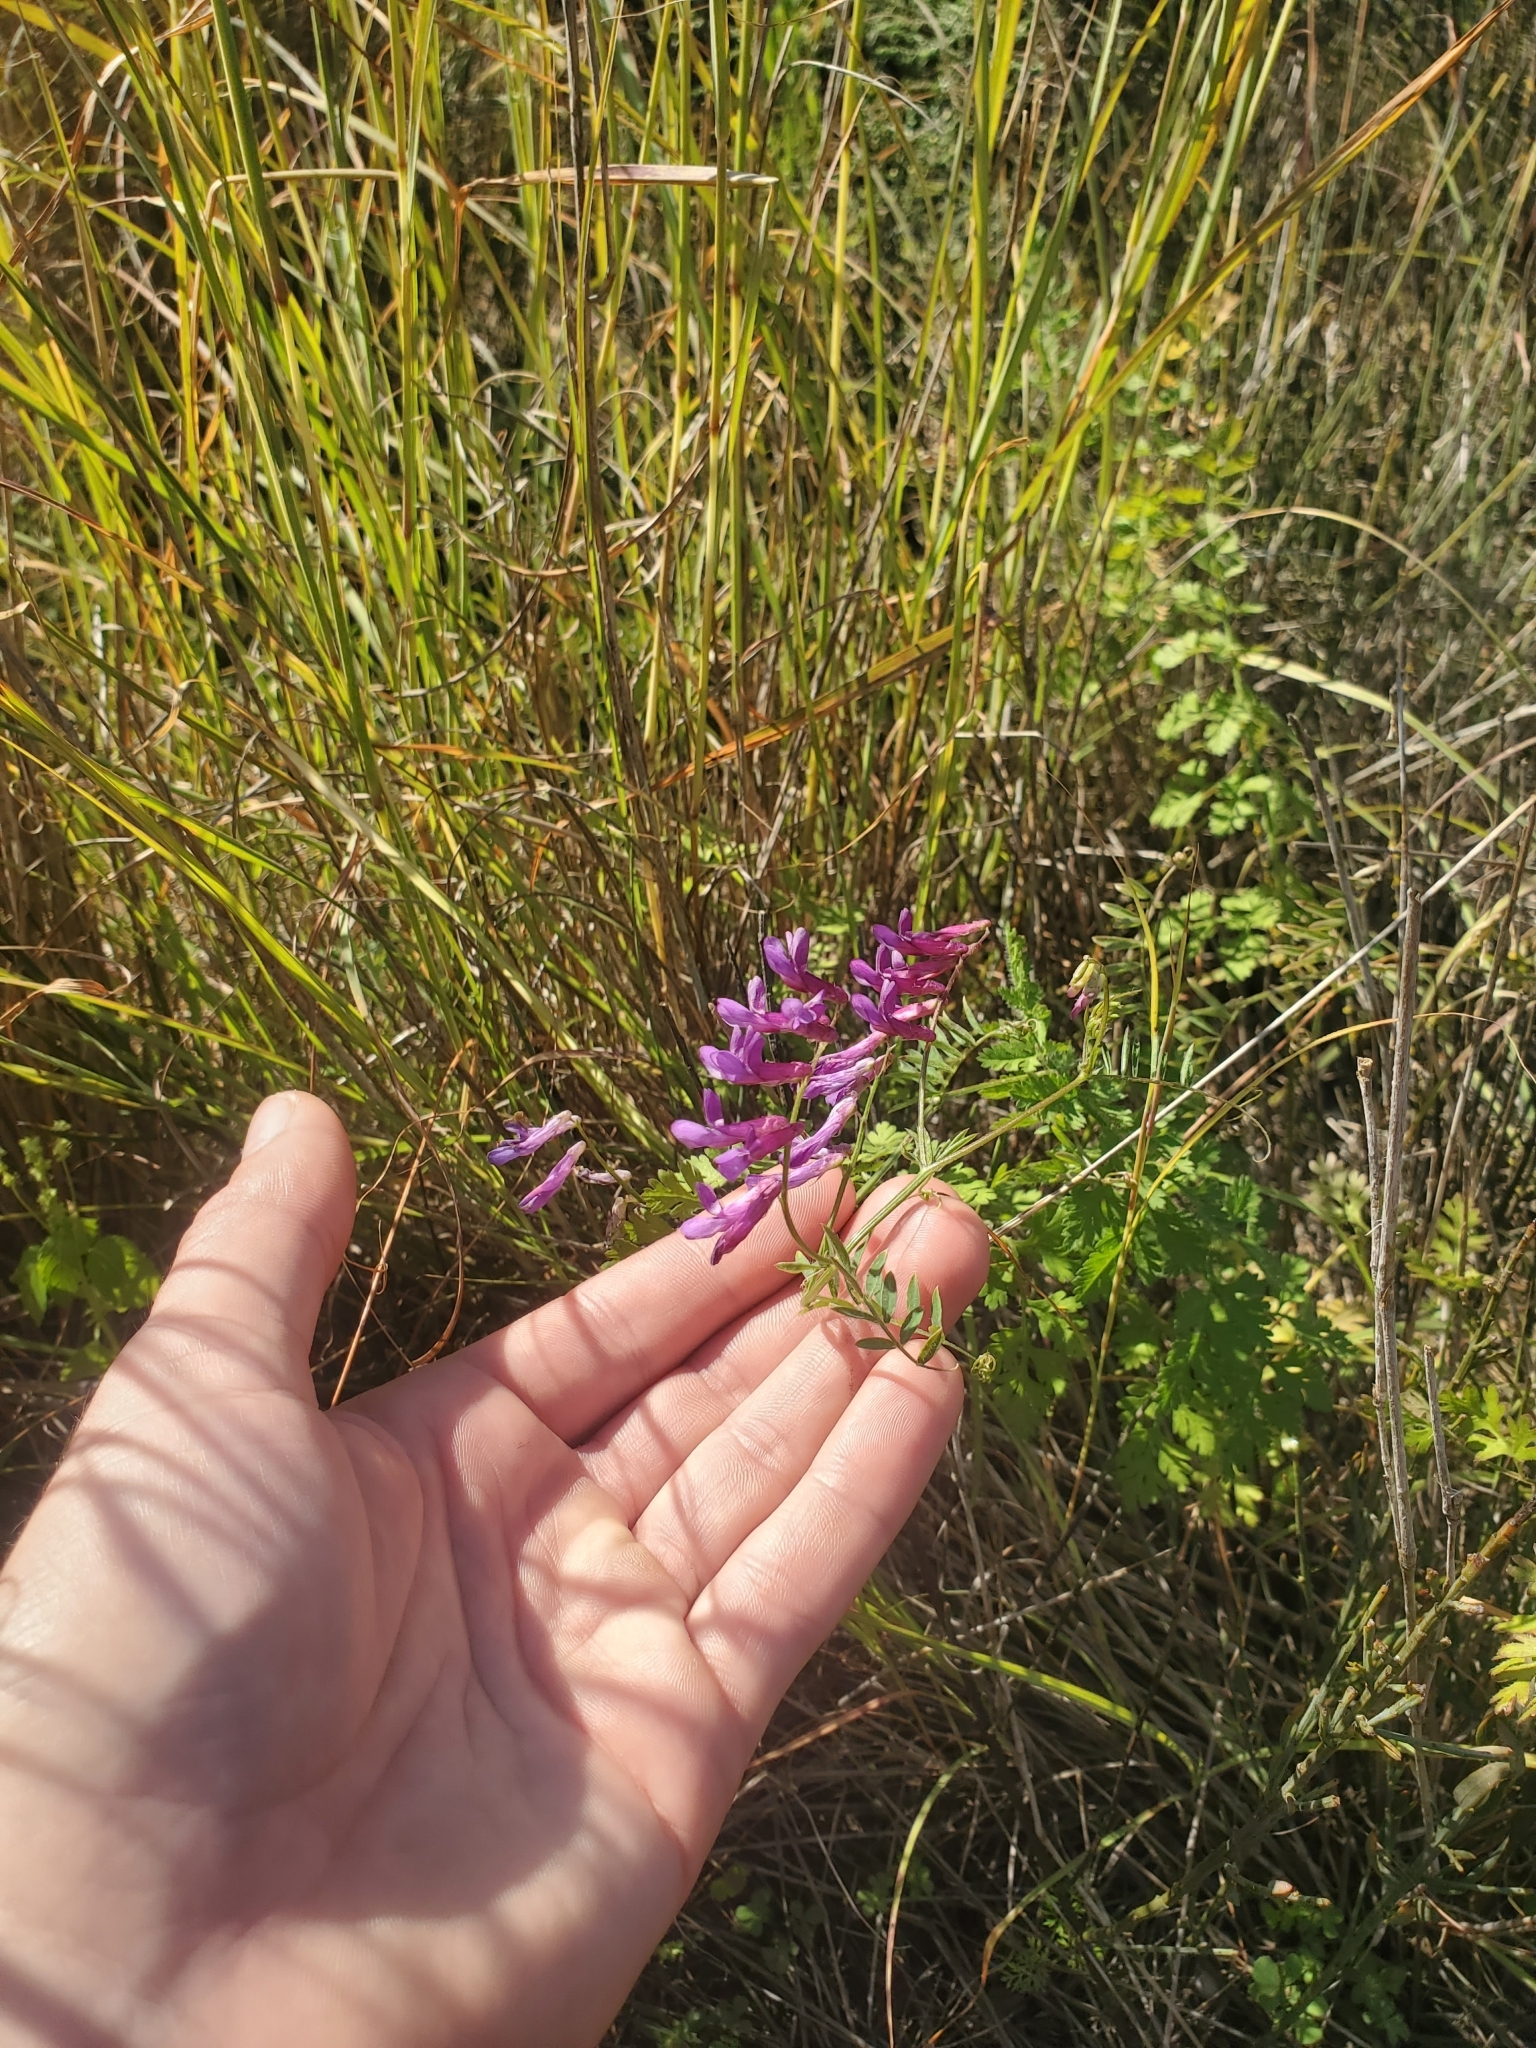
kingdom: Plantae
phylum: Tracheophyta
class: Magnoliopsida
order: Fabales
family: Fabaceae
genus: Vicia
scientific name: Vicia villosa
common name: Fodder vetch
